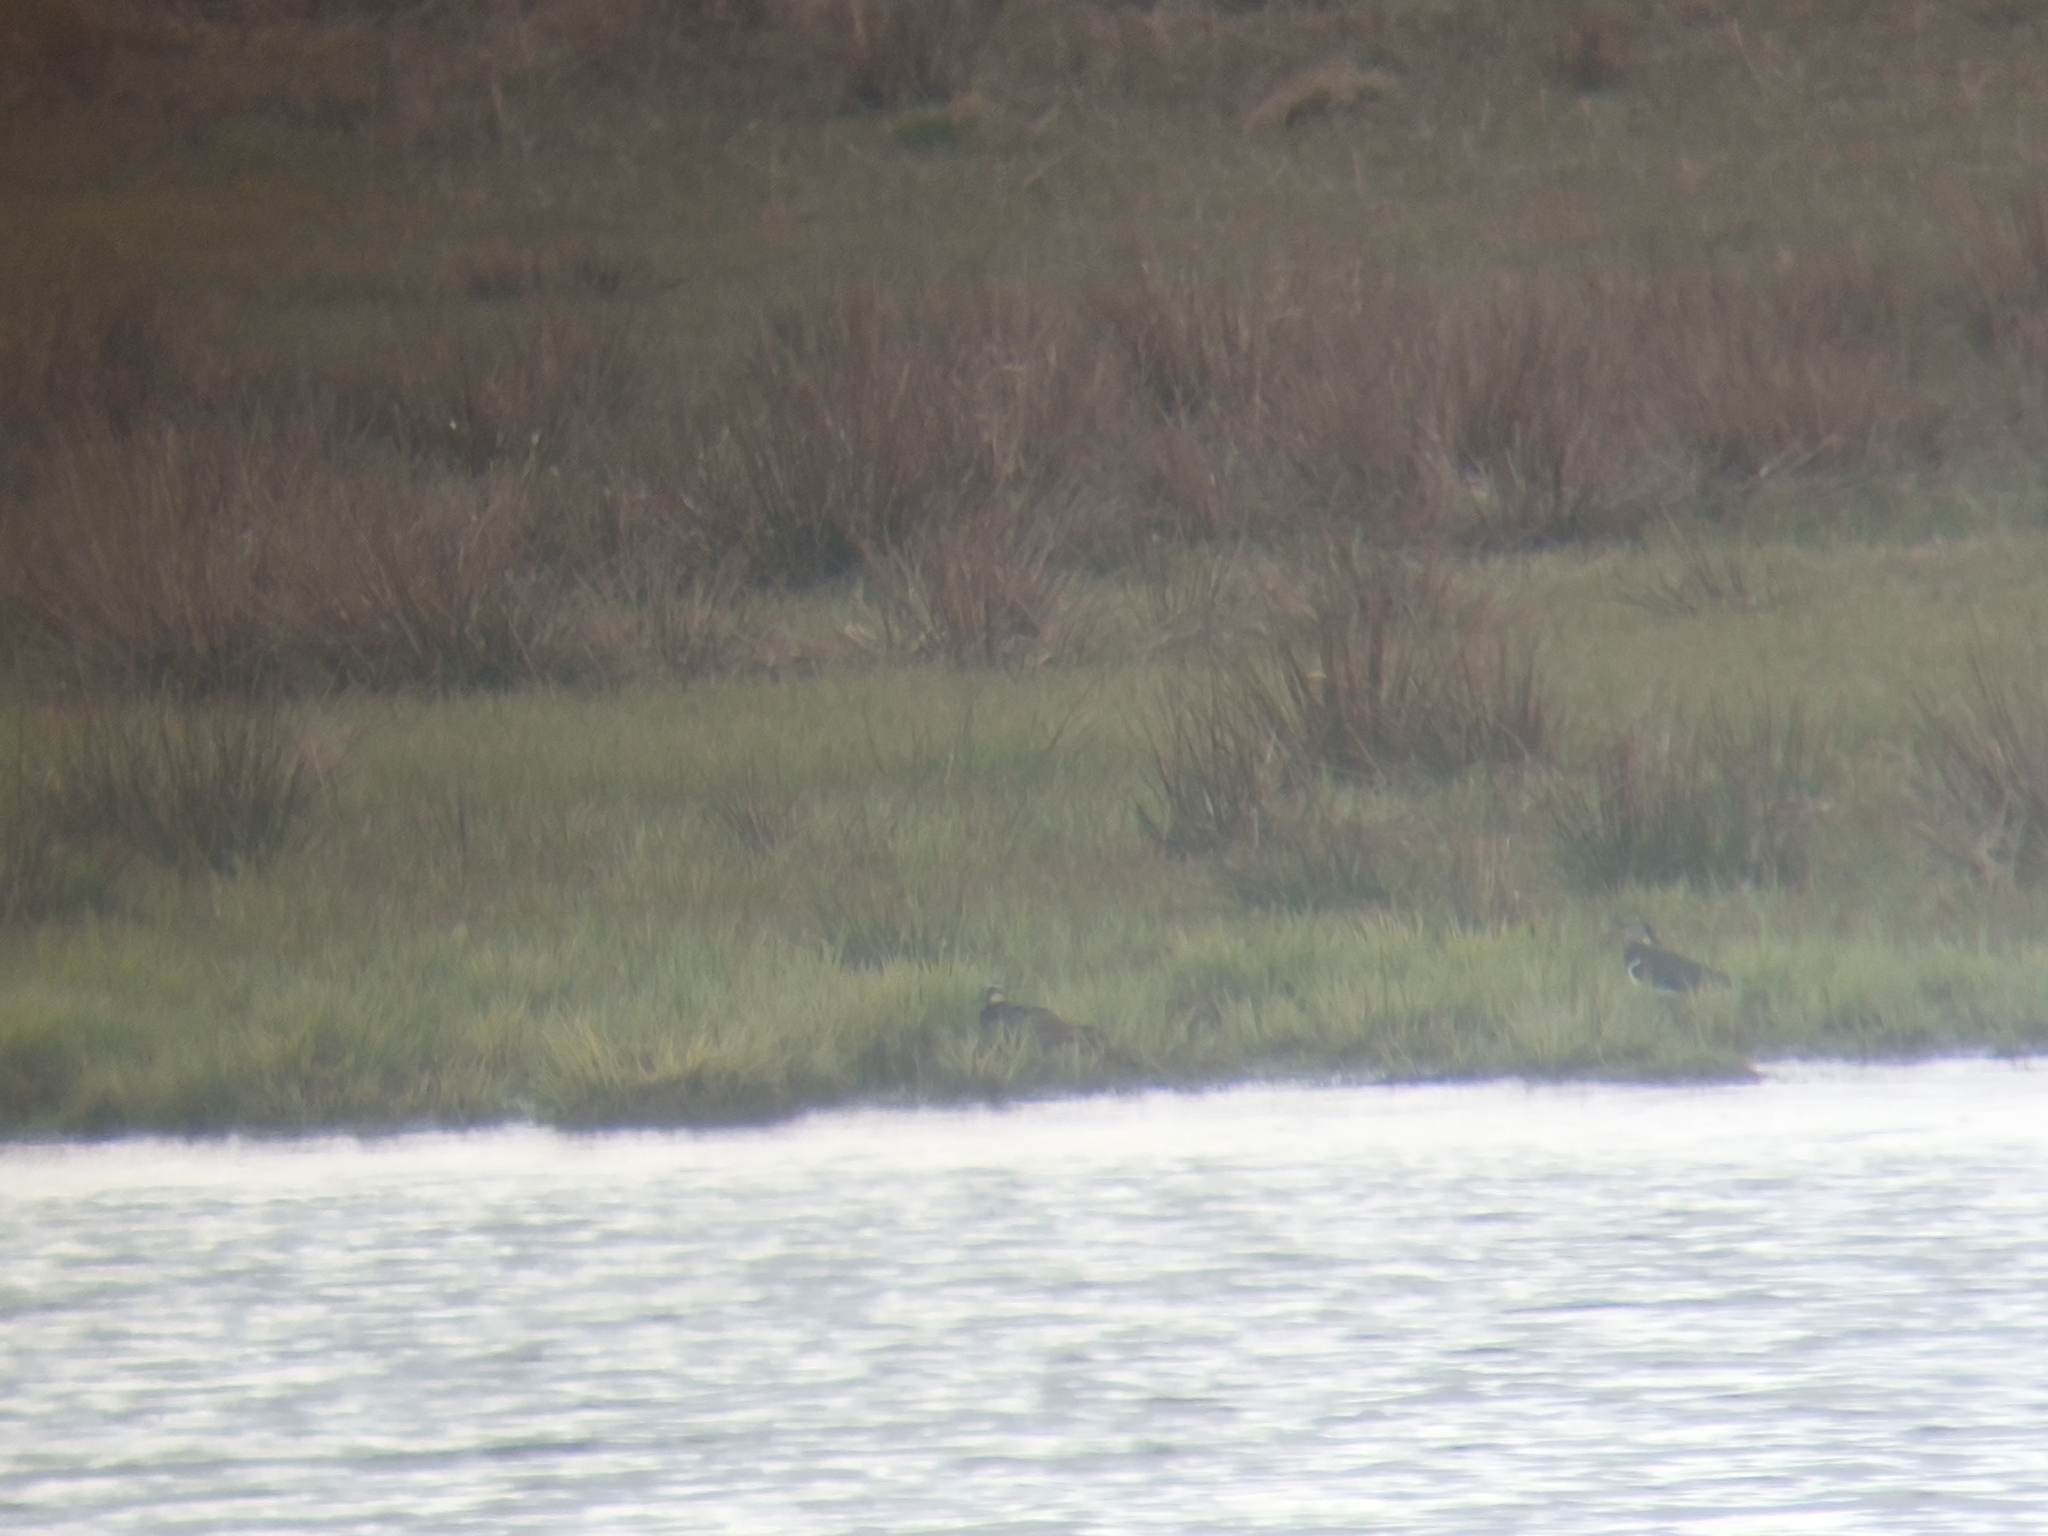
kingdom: Animalia
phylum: Chordata
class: Aves
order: Charadriiformes
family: Charadriidae
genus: Vanellus
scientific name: Vanellus vanellus
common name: Northern lapwing
